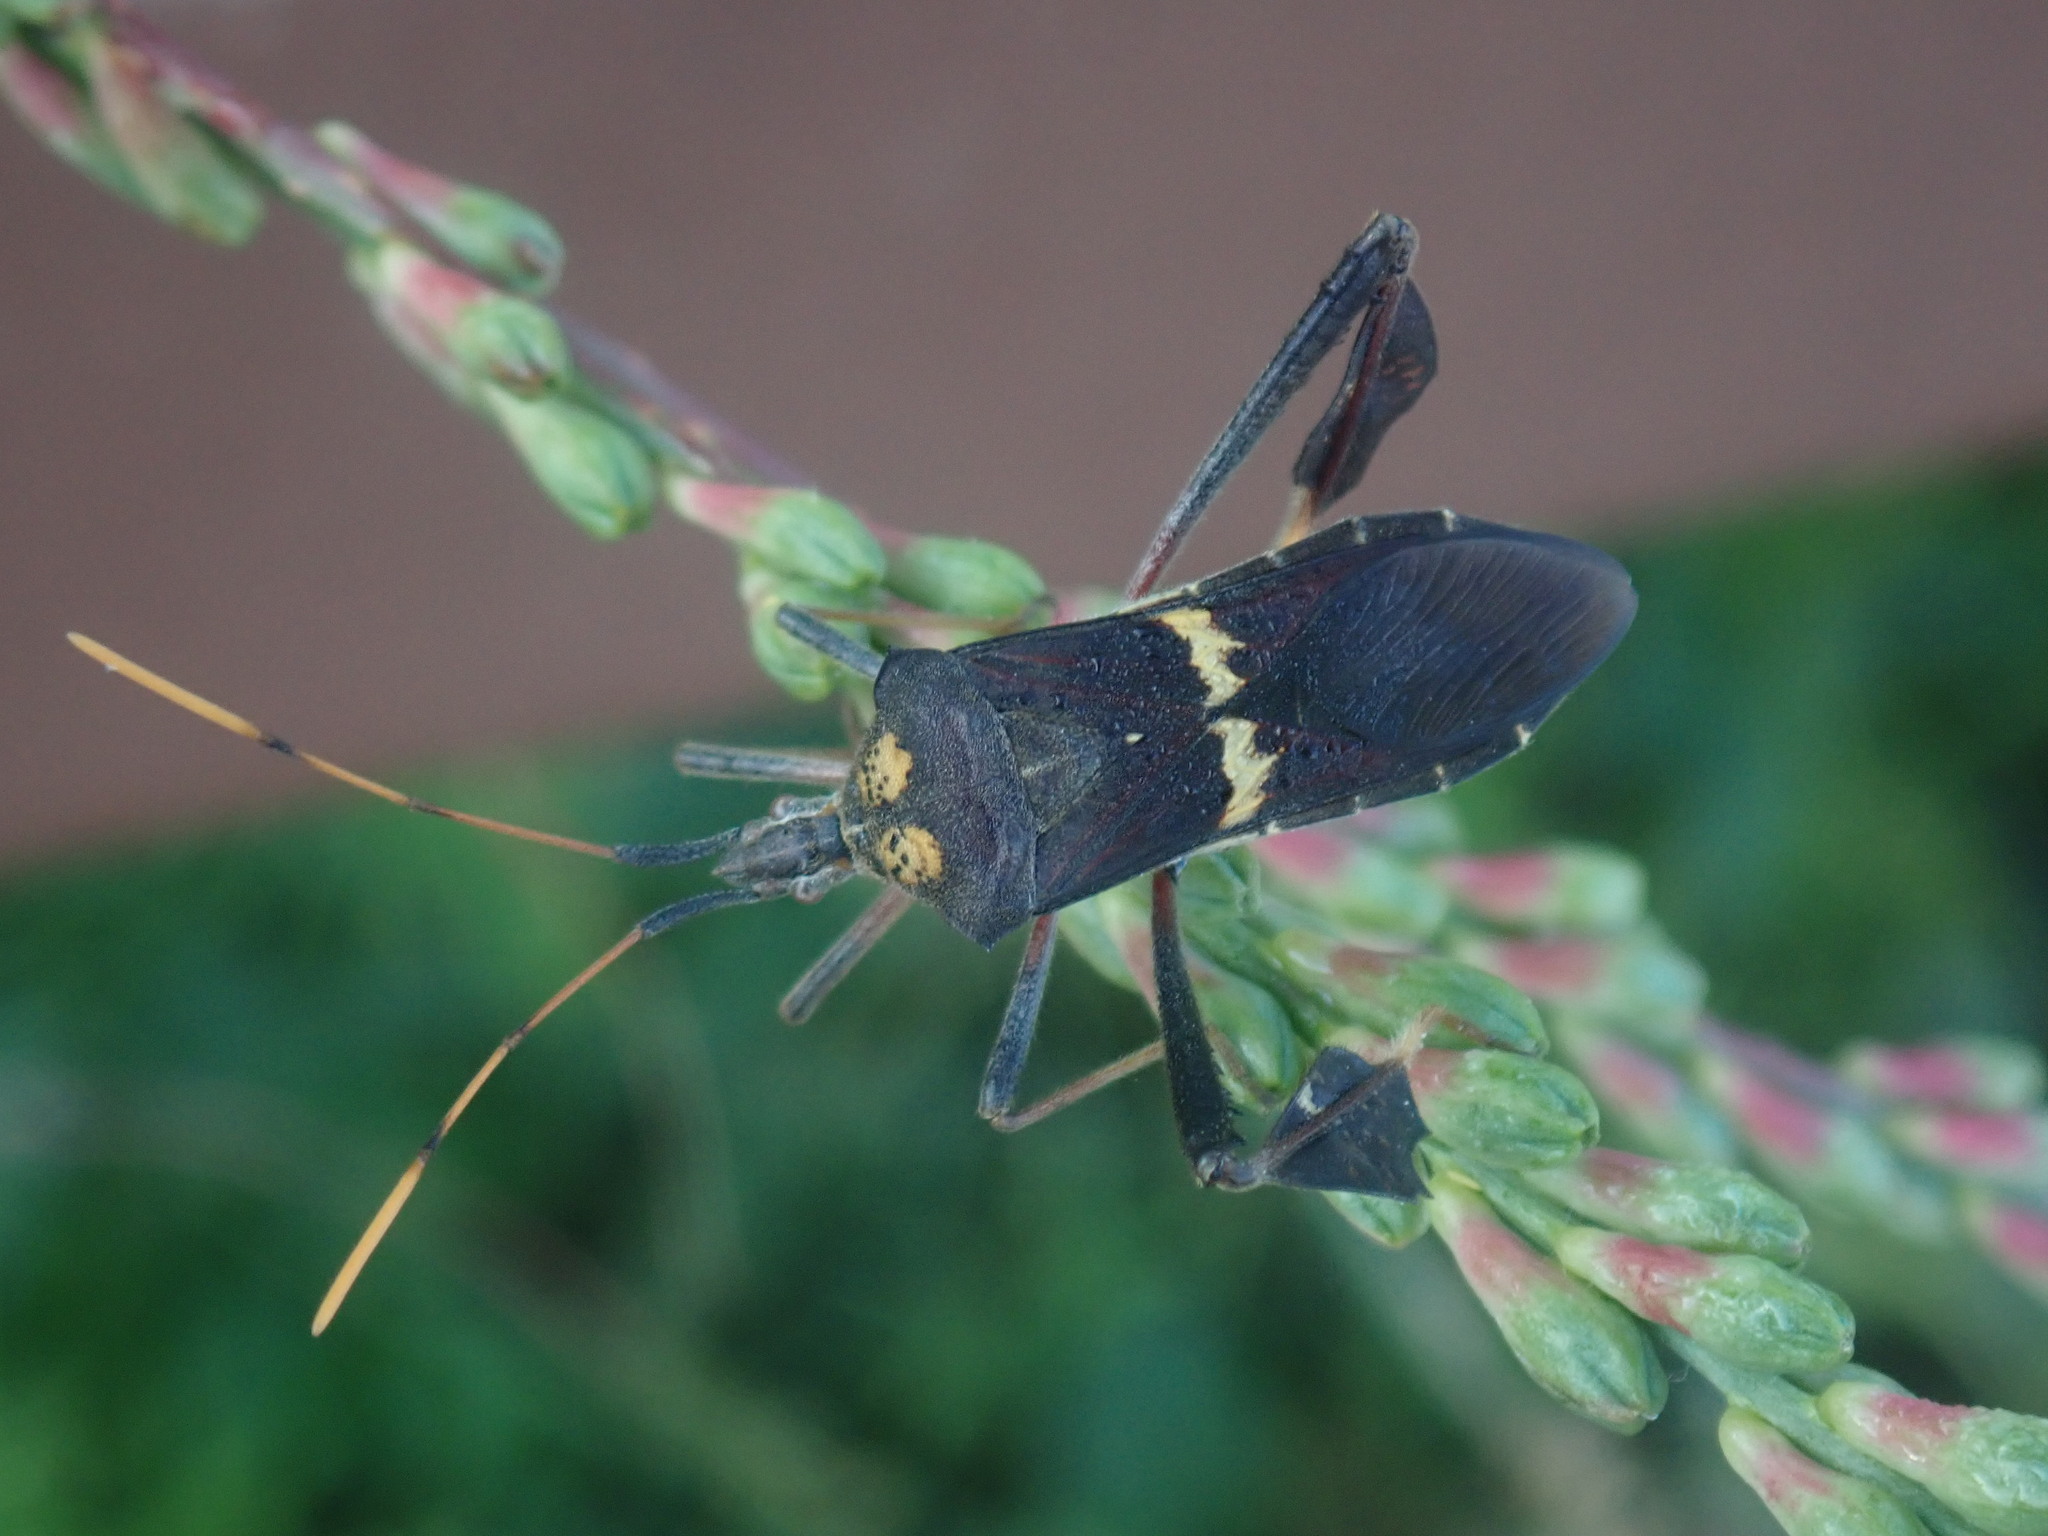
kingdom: Animalia
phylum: Arthropoda
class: Insecta
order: Hemiptera
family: Coreidae
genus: Leptoglossus
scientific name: Leptoglossus zonatus
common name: Large-legged bug
